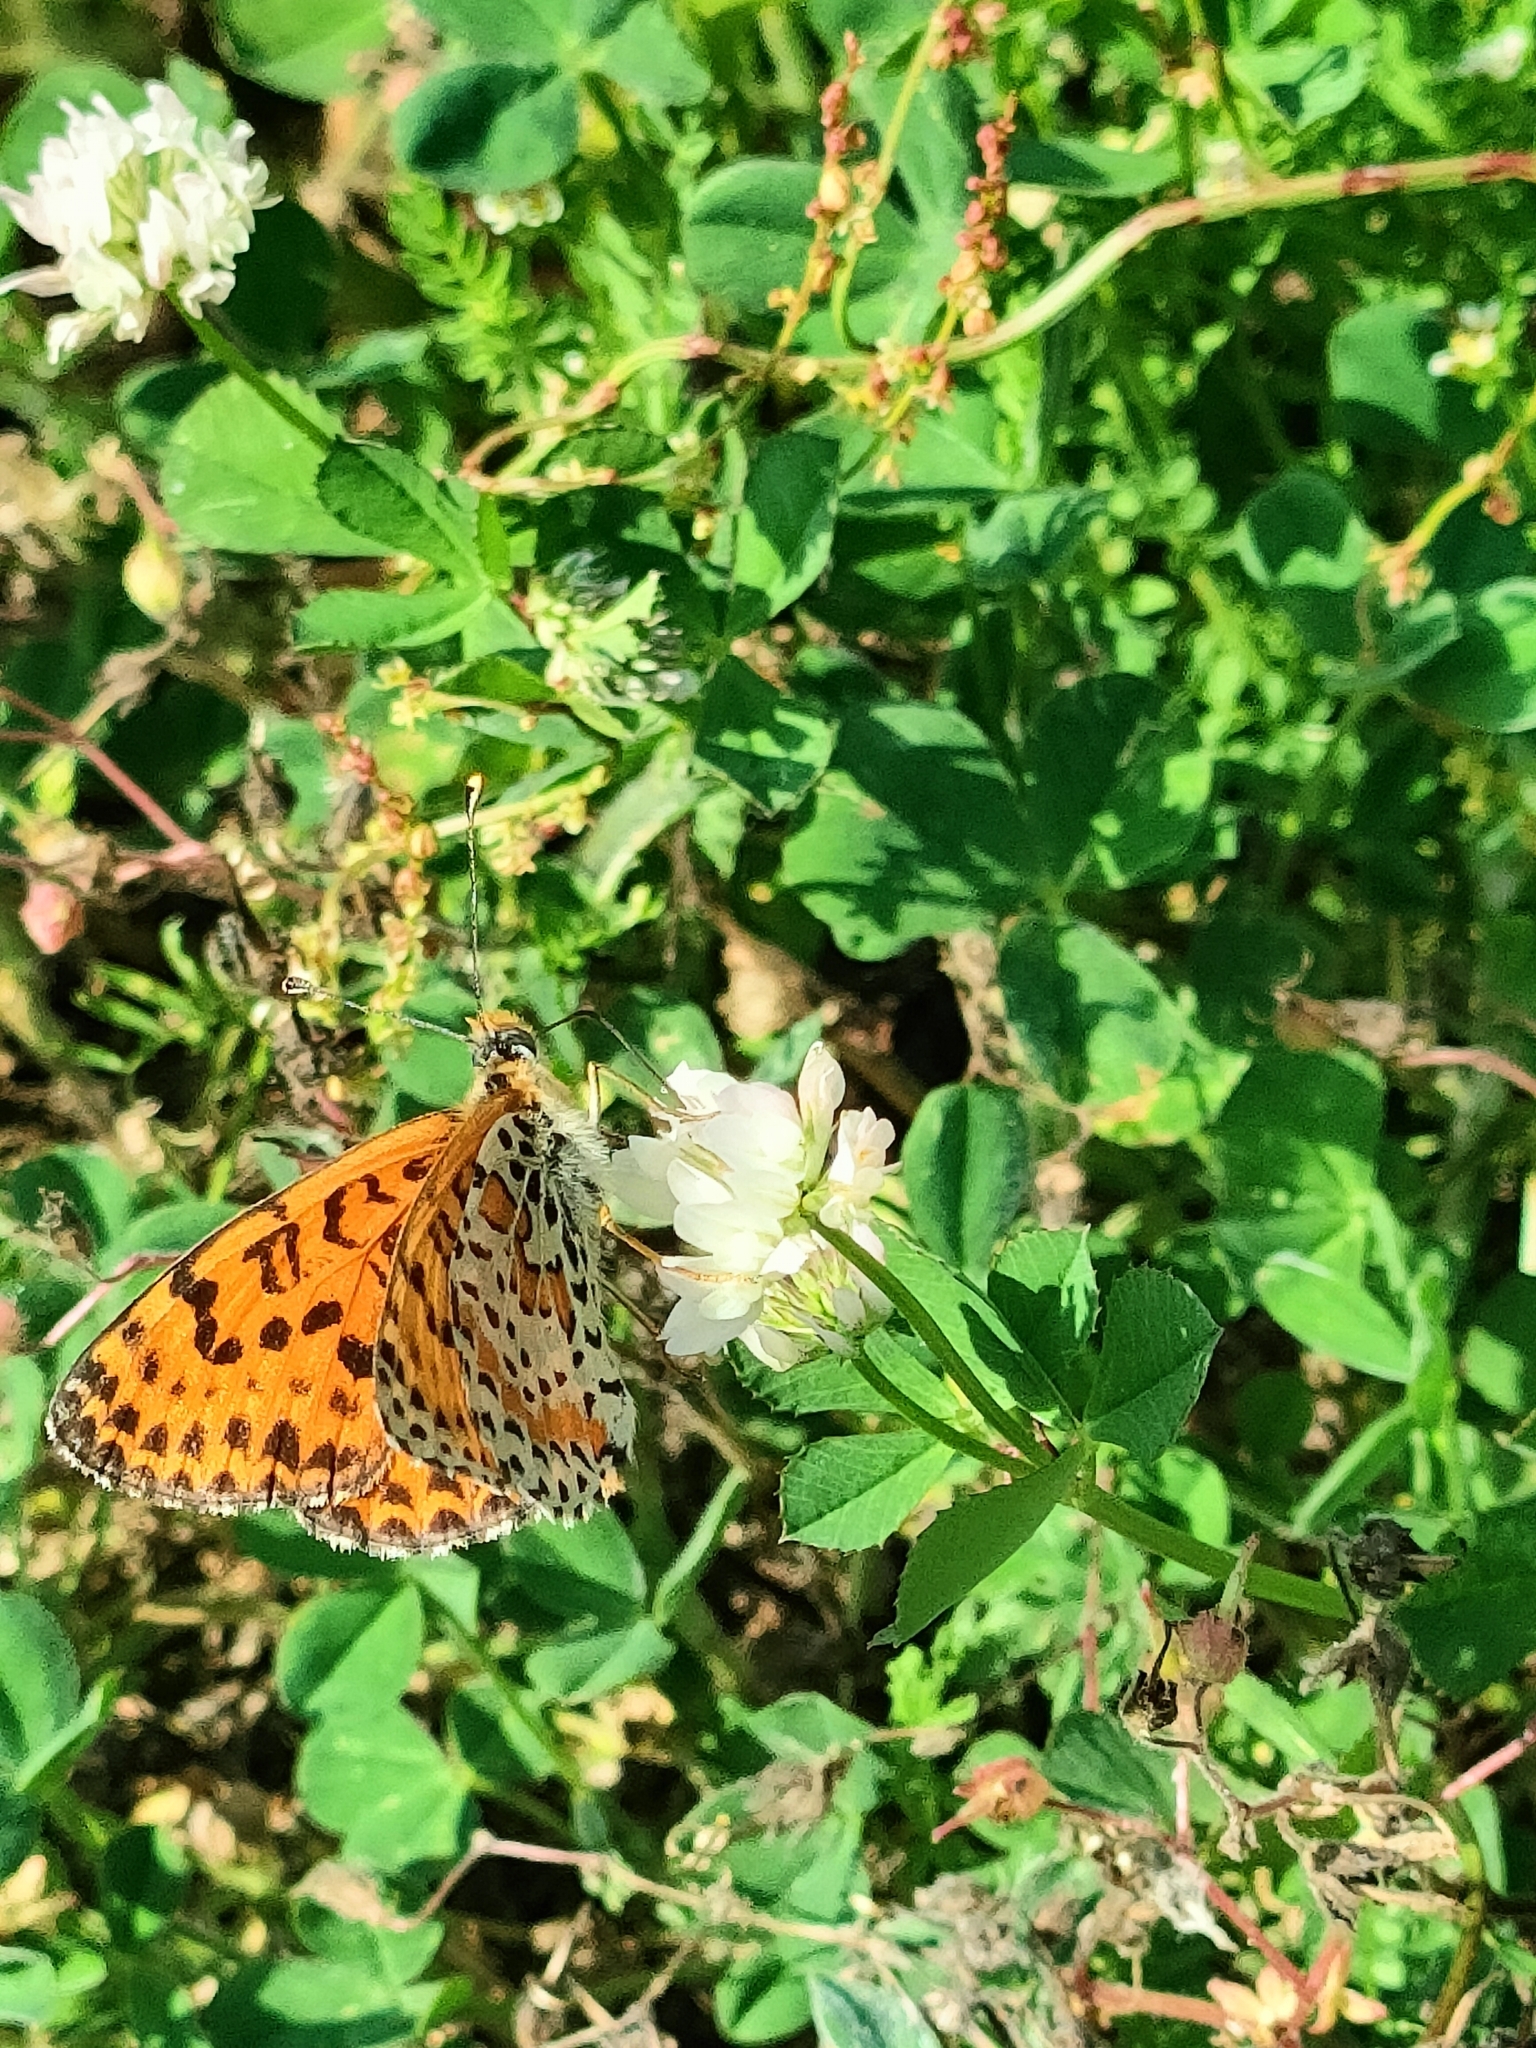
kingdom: Animalia
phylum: Arthropoda
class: Insecta
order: Lepidoptera
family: Nymphalidae
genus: Melitaea
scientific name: Melitaea didyma
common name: Spotted fritillary
